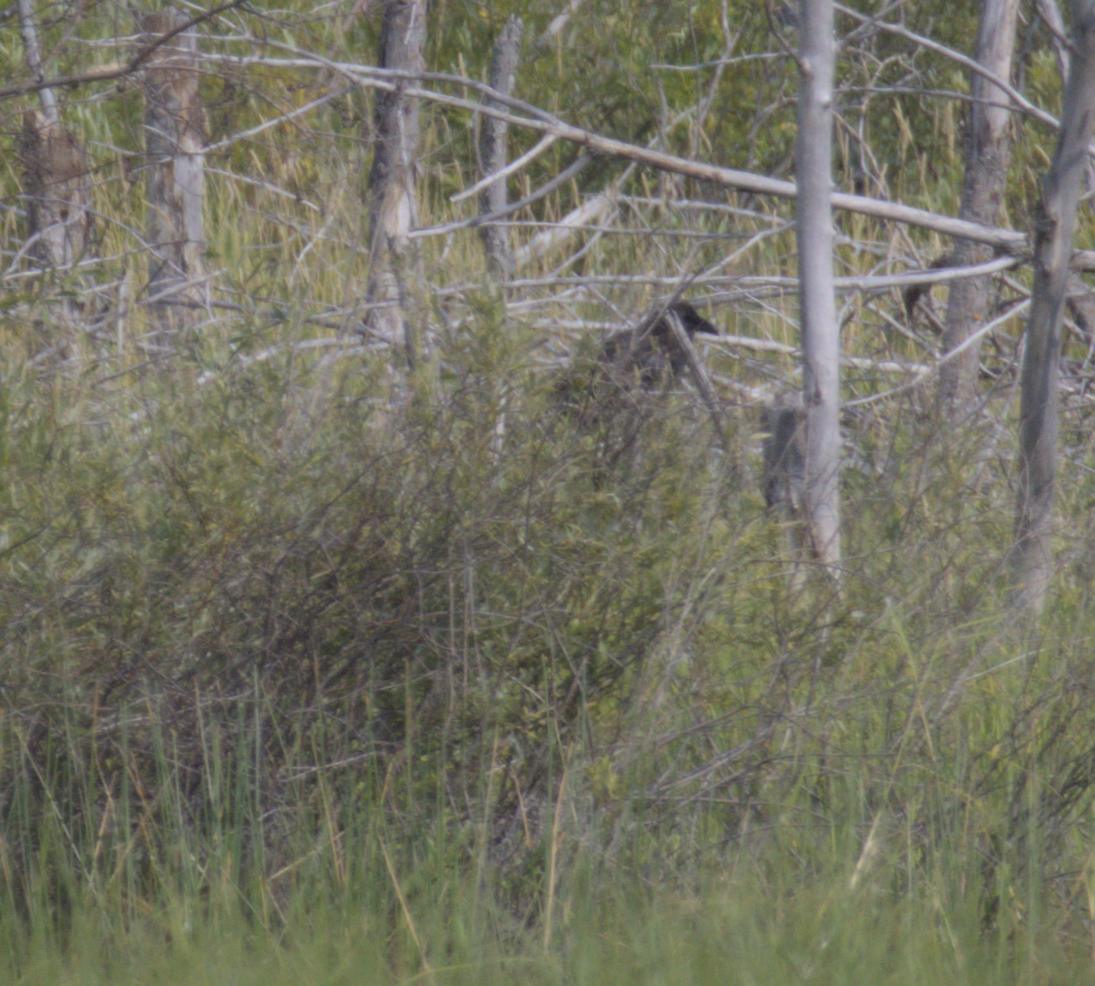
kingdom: Animalia
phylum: Chordata
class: Aves
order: Passeriformes
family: Corvidae
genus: Corvus
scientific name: Corvus corax
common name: Common raven
